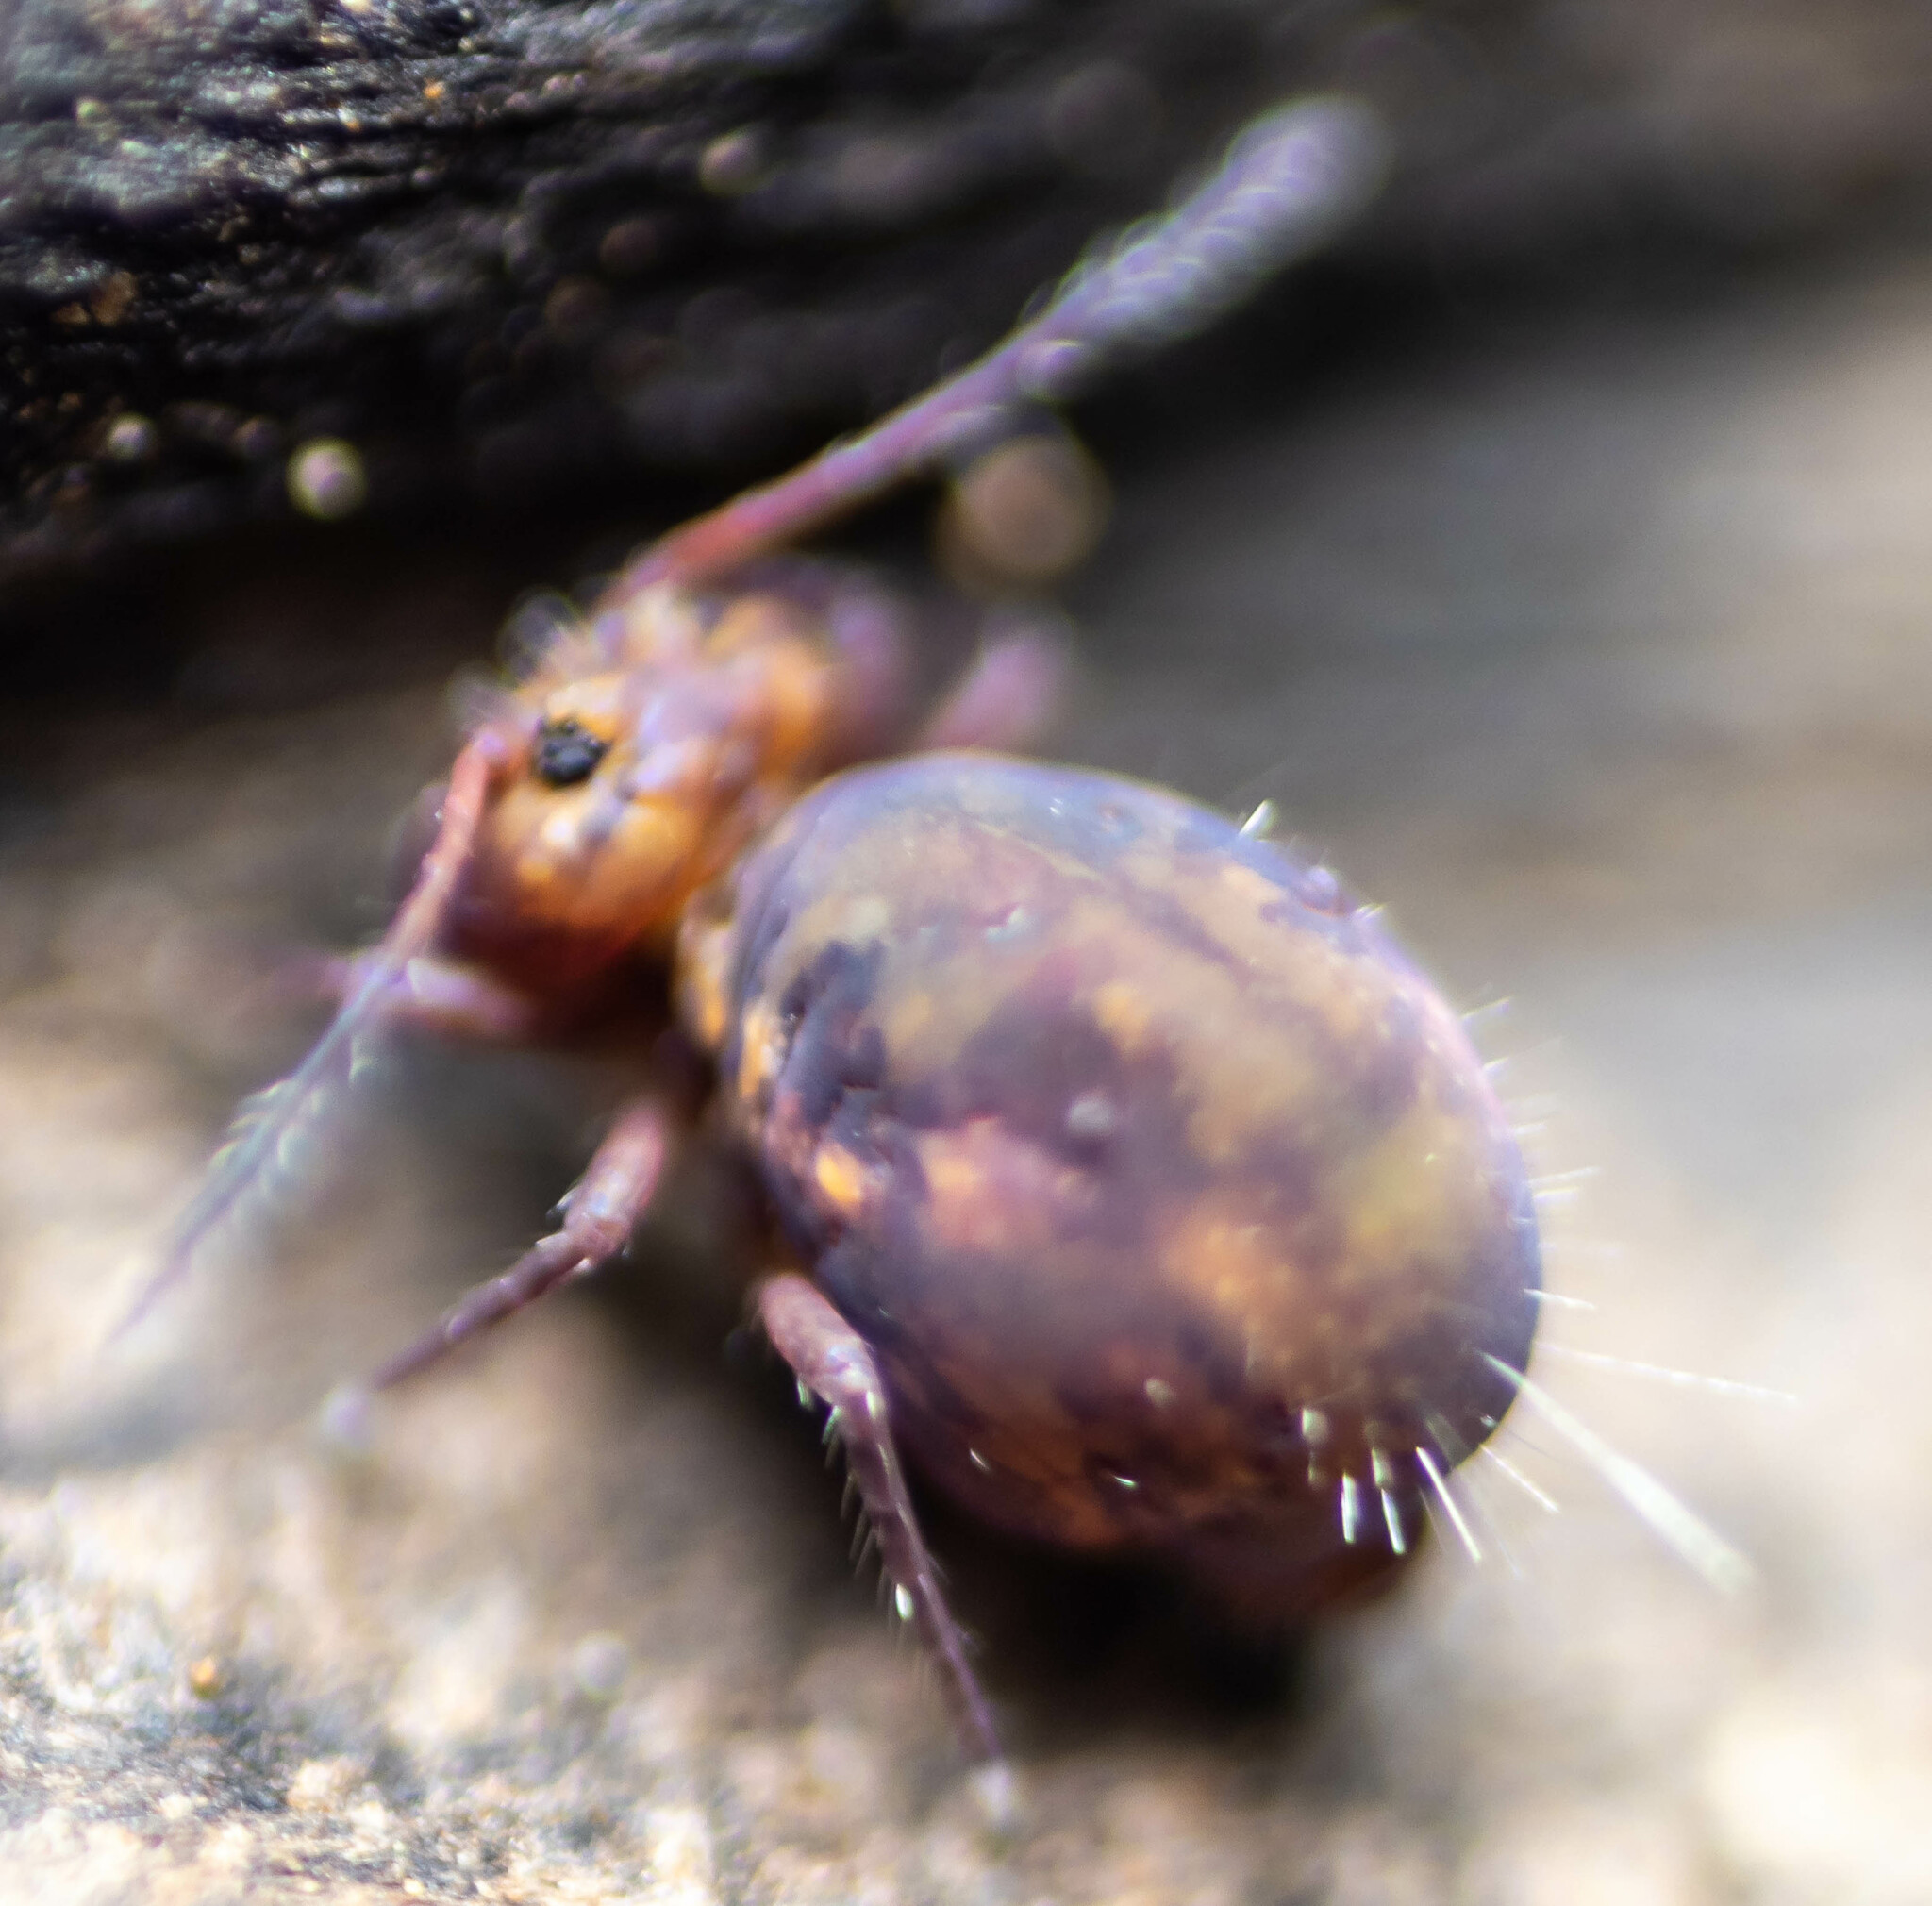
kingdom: Animalia
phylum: Arthropoda
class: Collembola
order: Symphypleona
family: Dicyrtomidae
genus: Dicyrtoma
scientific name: Dicyrtoma fusca
